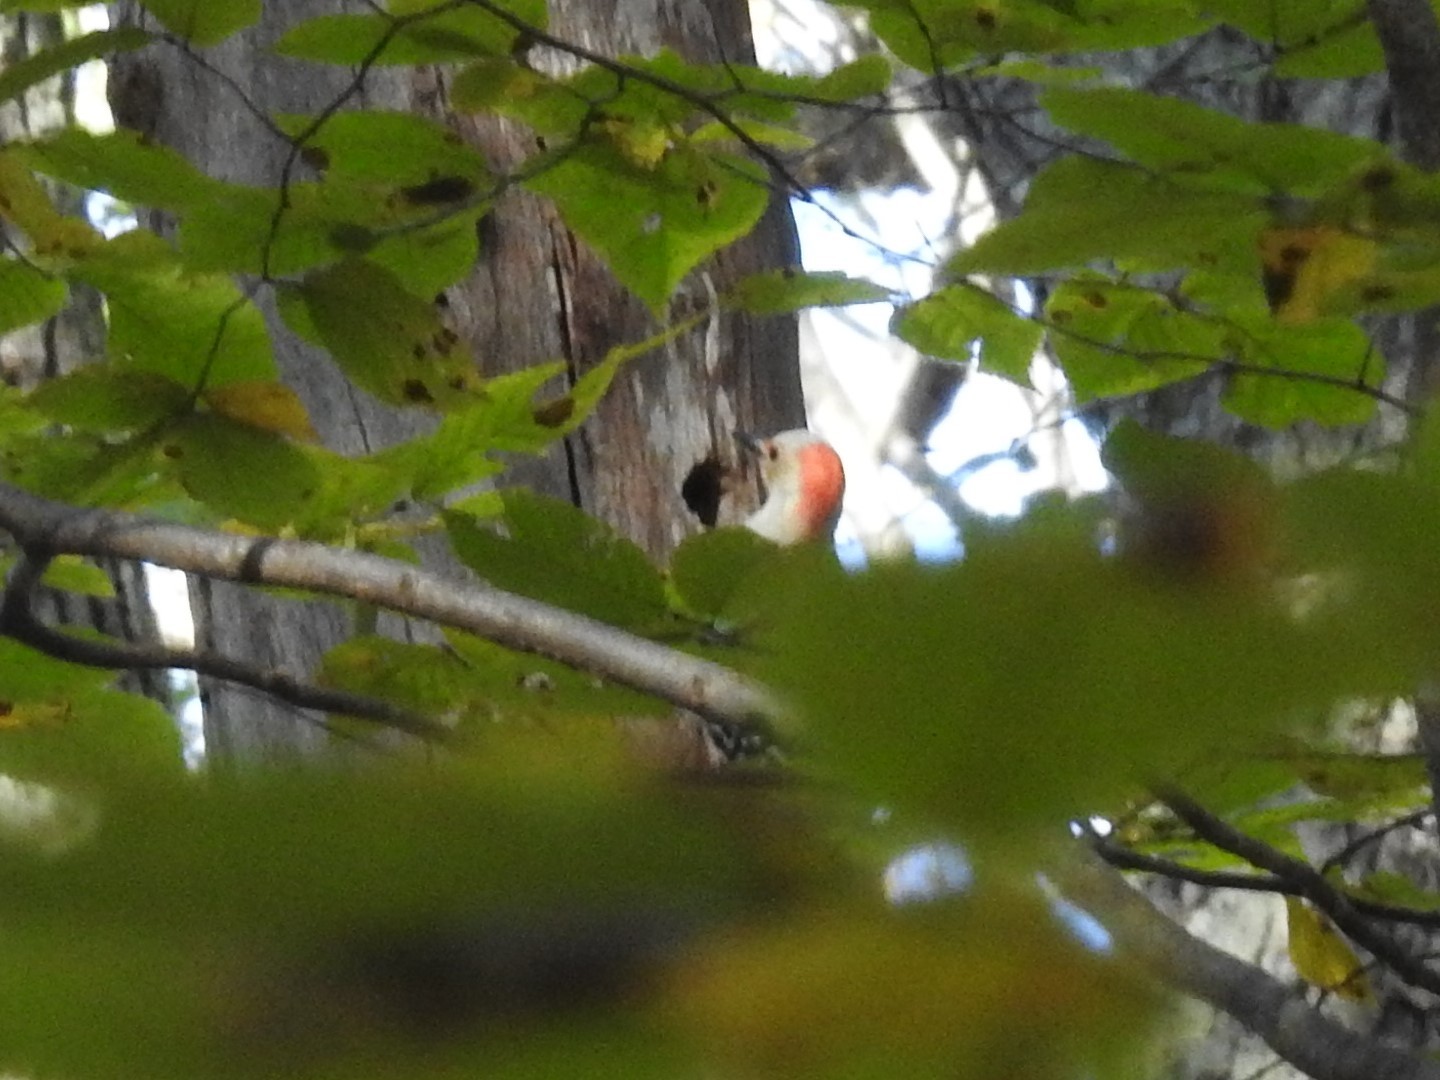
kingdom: Animalia
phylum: Chordata
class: Aves
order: Piciformes
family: Picidae
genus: Melanerpes
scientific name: Melanerpes carolinus
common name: Red-bellied woodpecker
